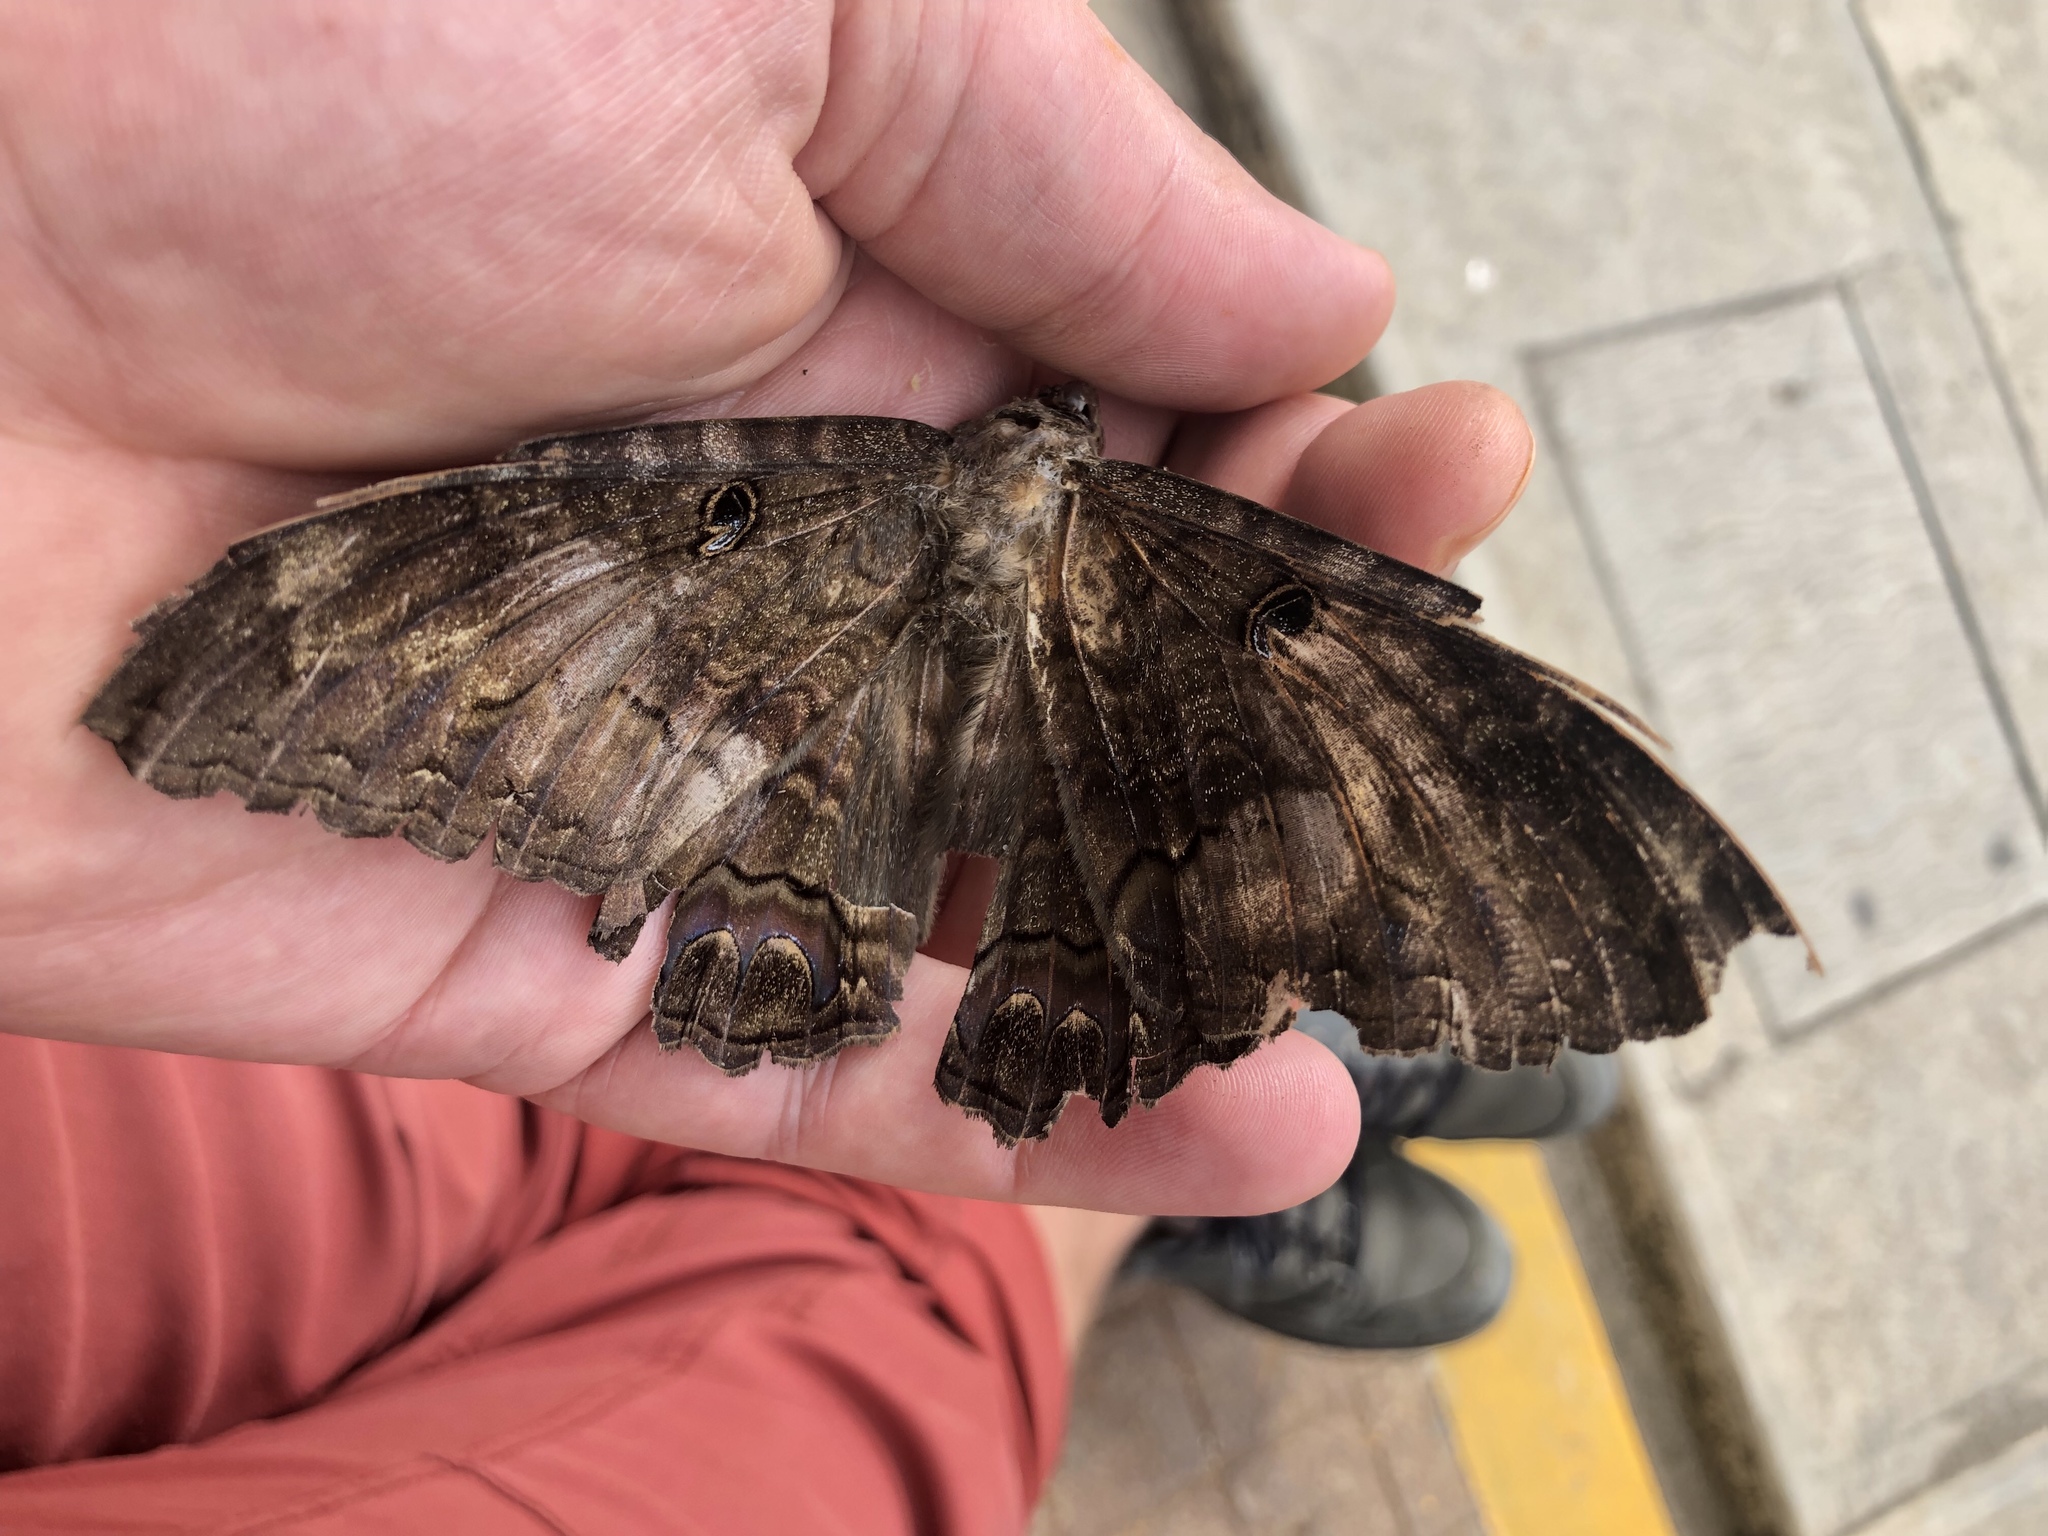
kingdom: Animalia
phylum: Arthropoda
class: Insecta
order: Lepidoptera
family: Erebidae
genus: Ascalapha
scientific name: Ascalapha odorata
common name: Black witch
